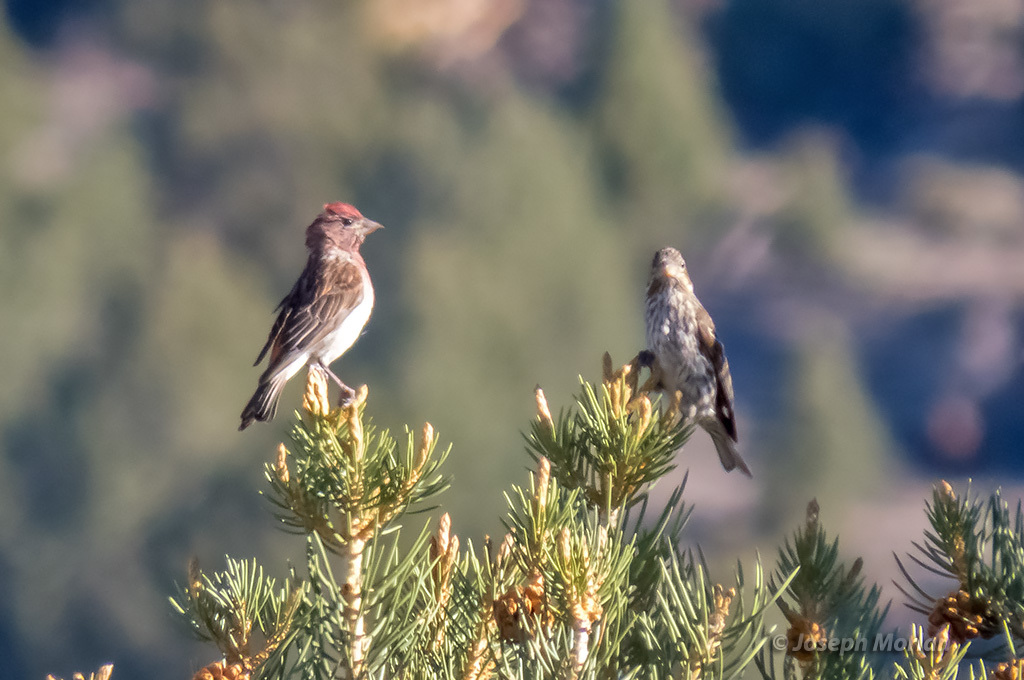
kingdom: Animalia
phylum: Chordata
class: Aves
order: Passeriformes
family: Fringillidae
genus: Haemorhous
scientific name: Haemorhous cassinii
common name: Cassin's finch
